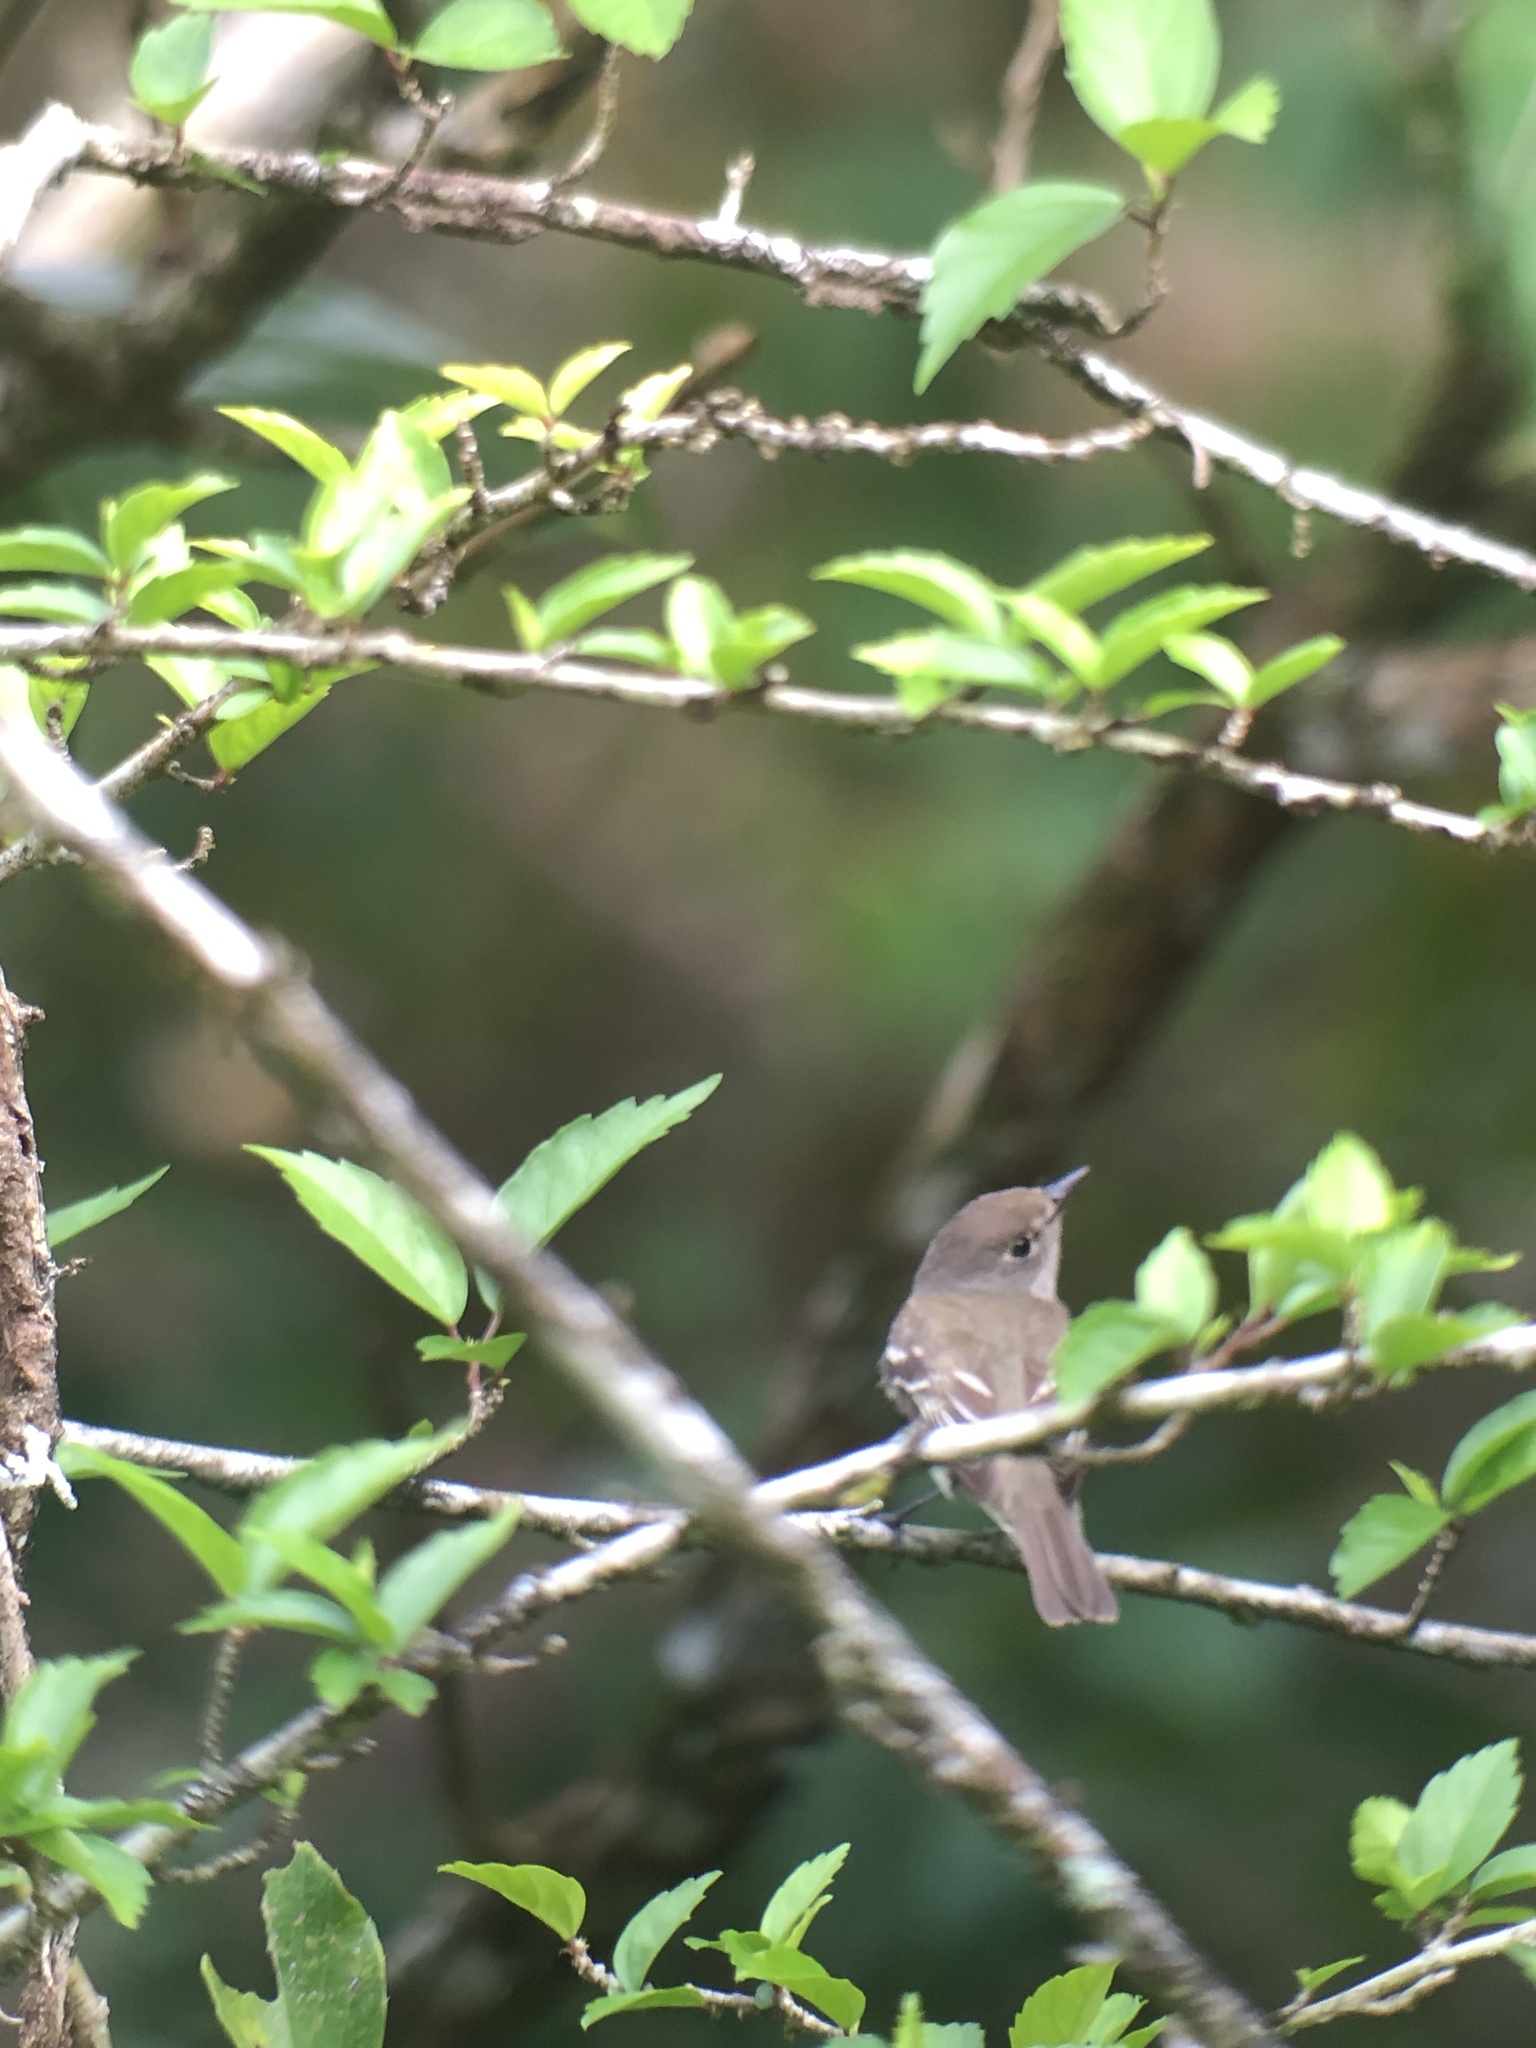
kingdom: Animalia
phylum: Chordata
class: Aves
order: Passeriformes
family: Tyrannidae
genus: Empidonax
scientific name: Empidonax minimus
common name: Least flycatcher
